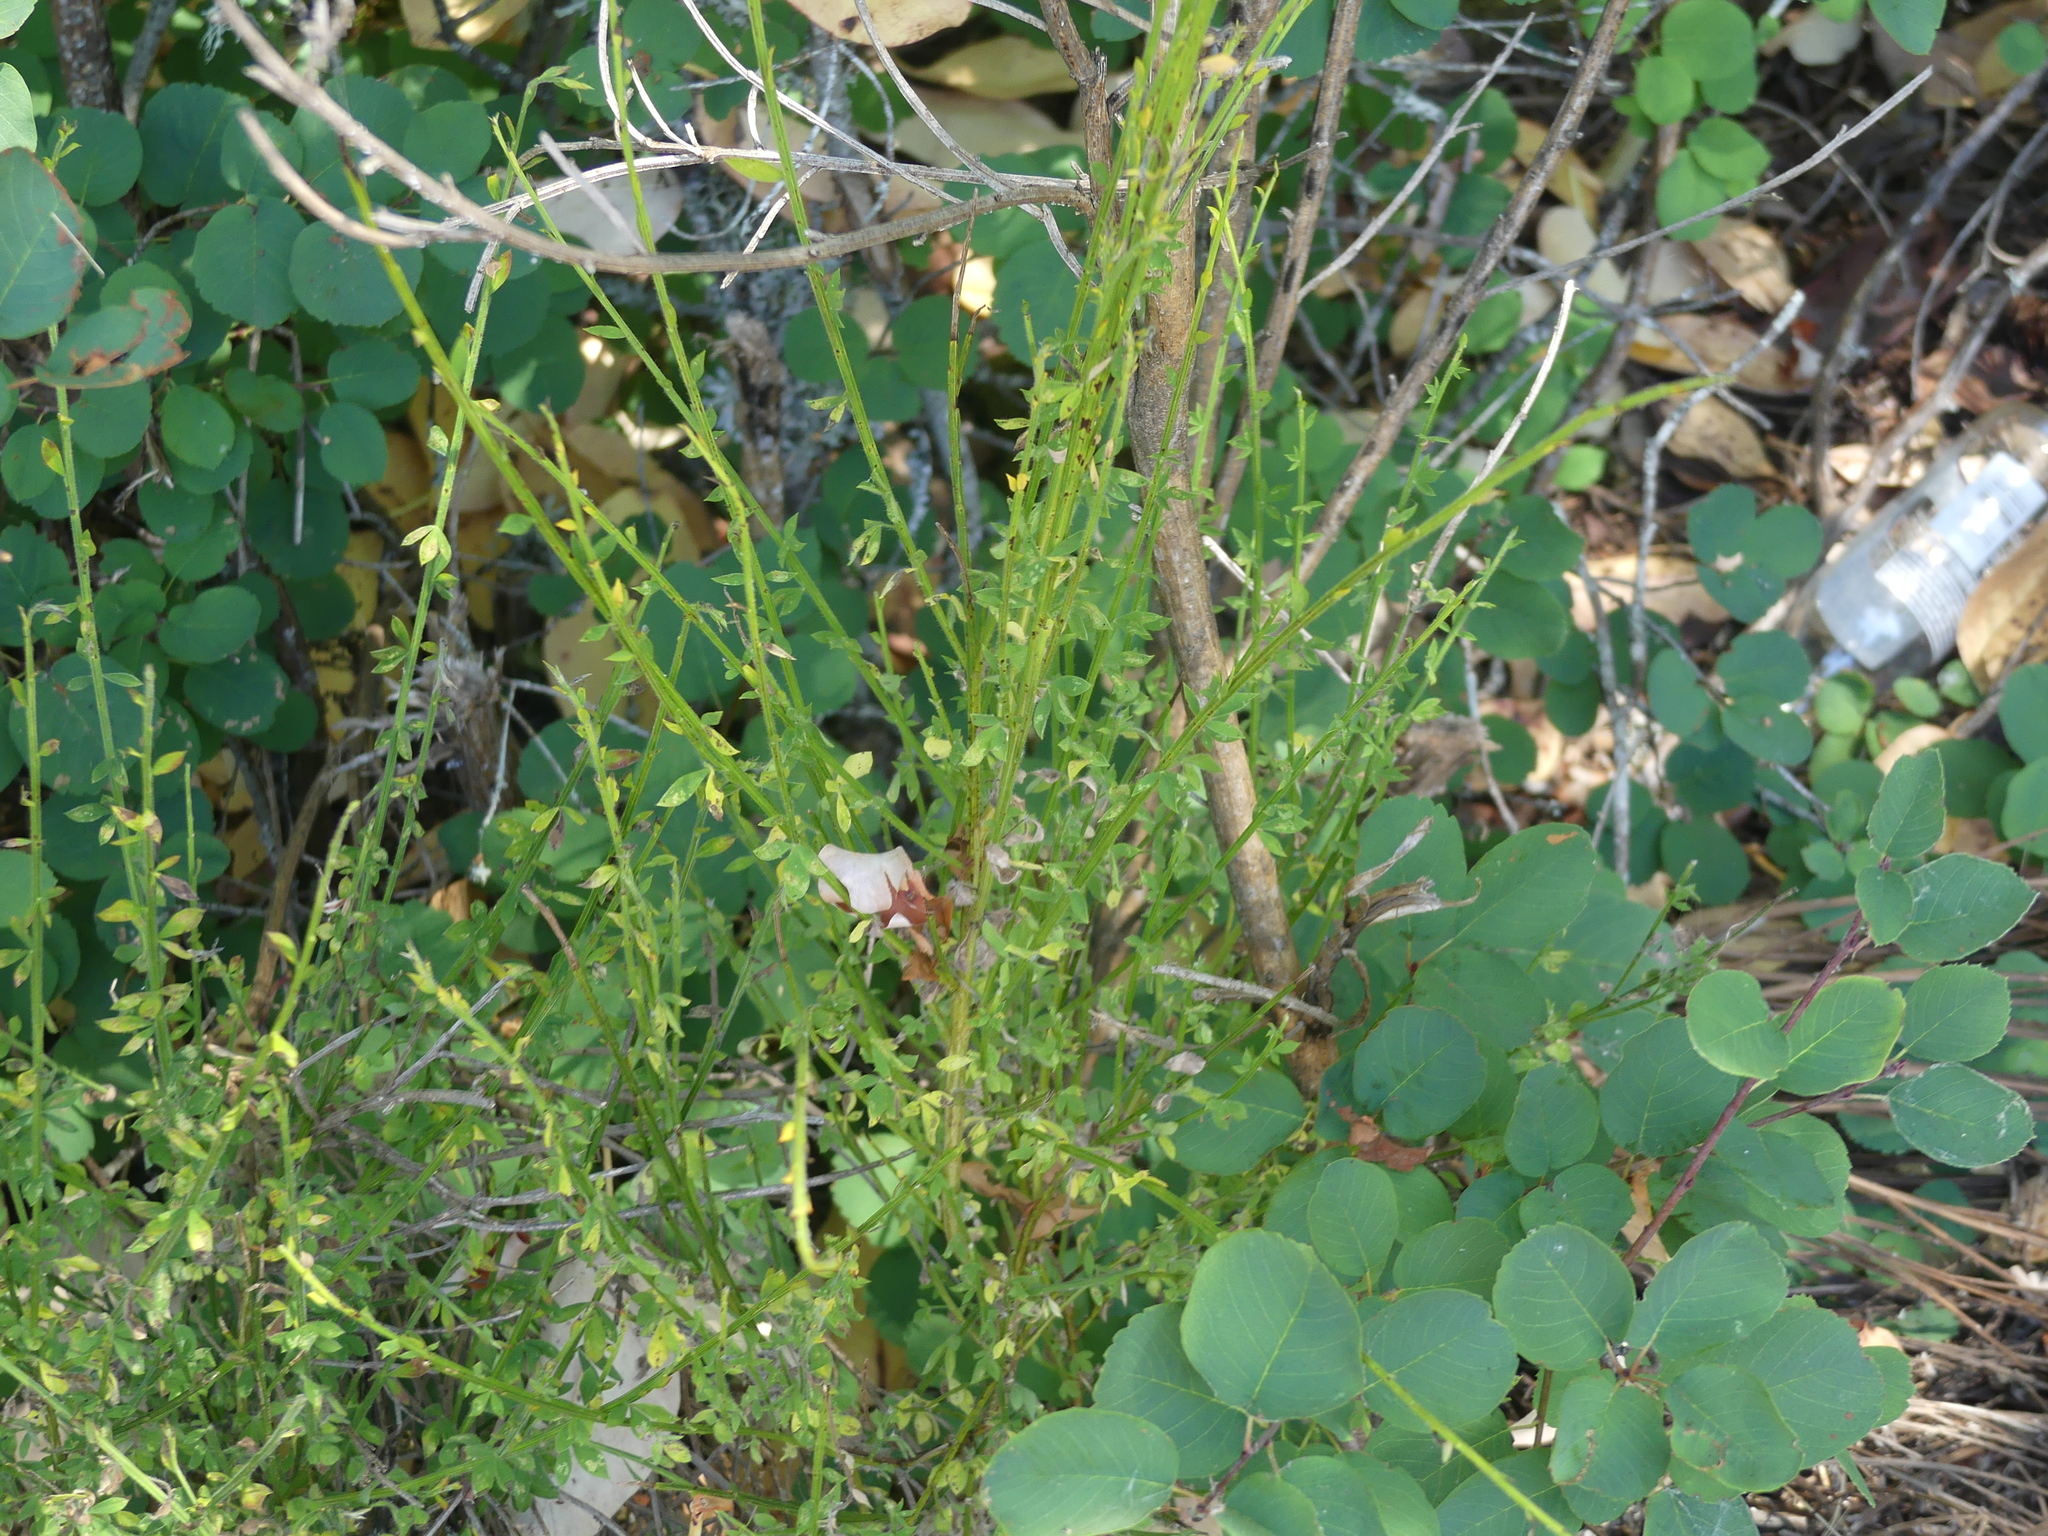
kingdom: Plantae
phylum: Tracheophyta
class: Magnoliopsida
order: Fabales
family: Fabaceae
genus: Cytisus
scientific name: Cytisus scoparius
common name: Scotch broom
